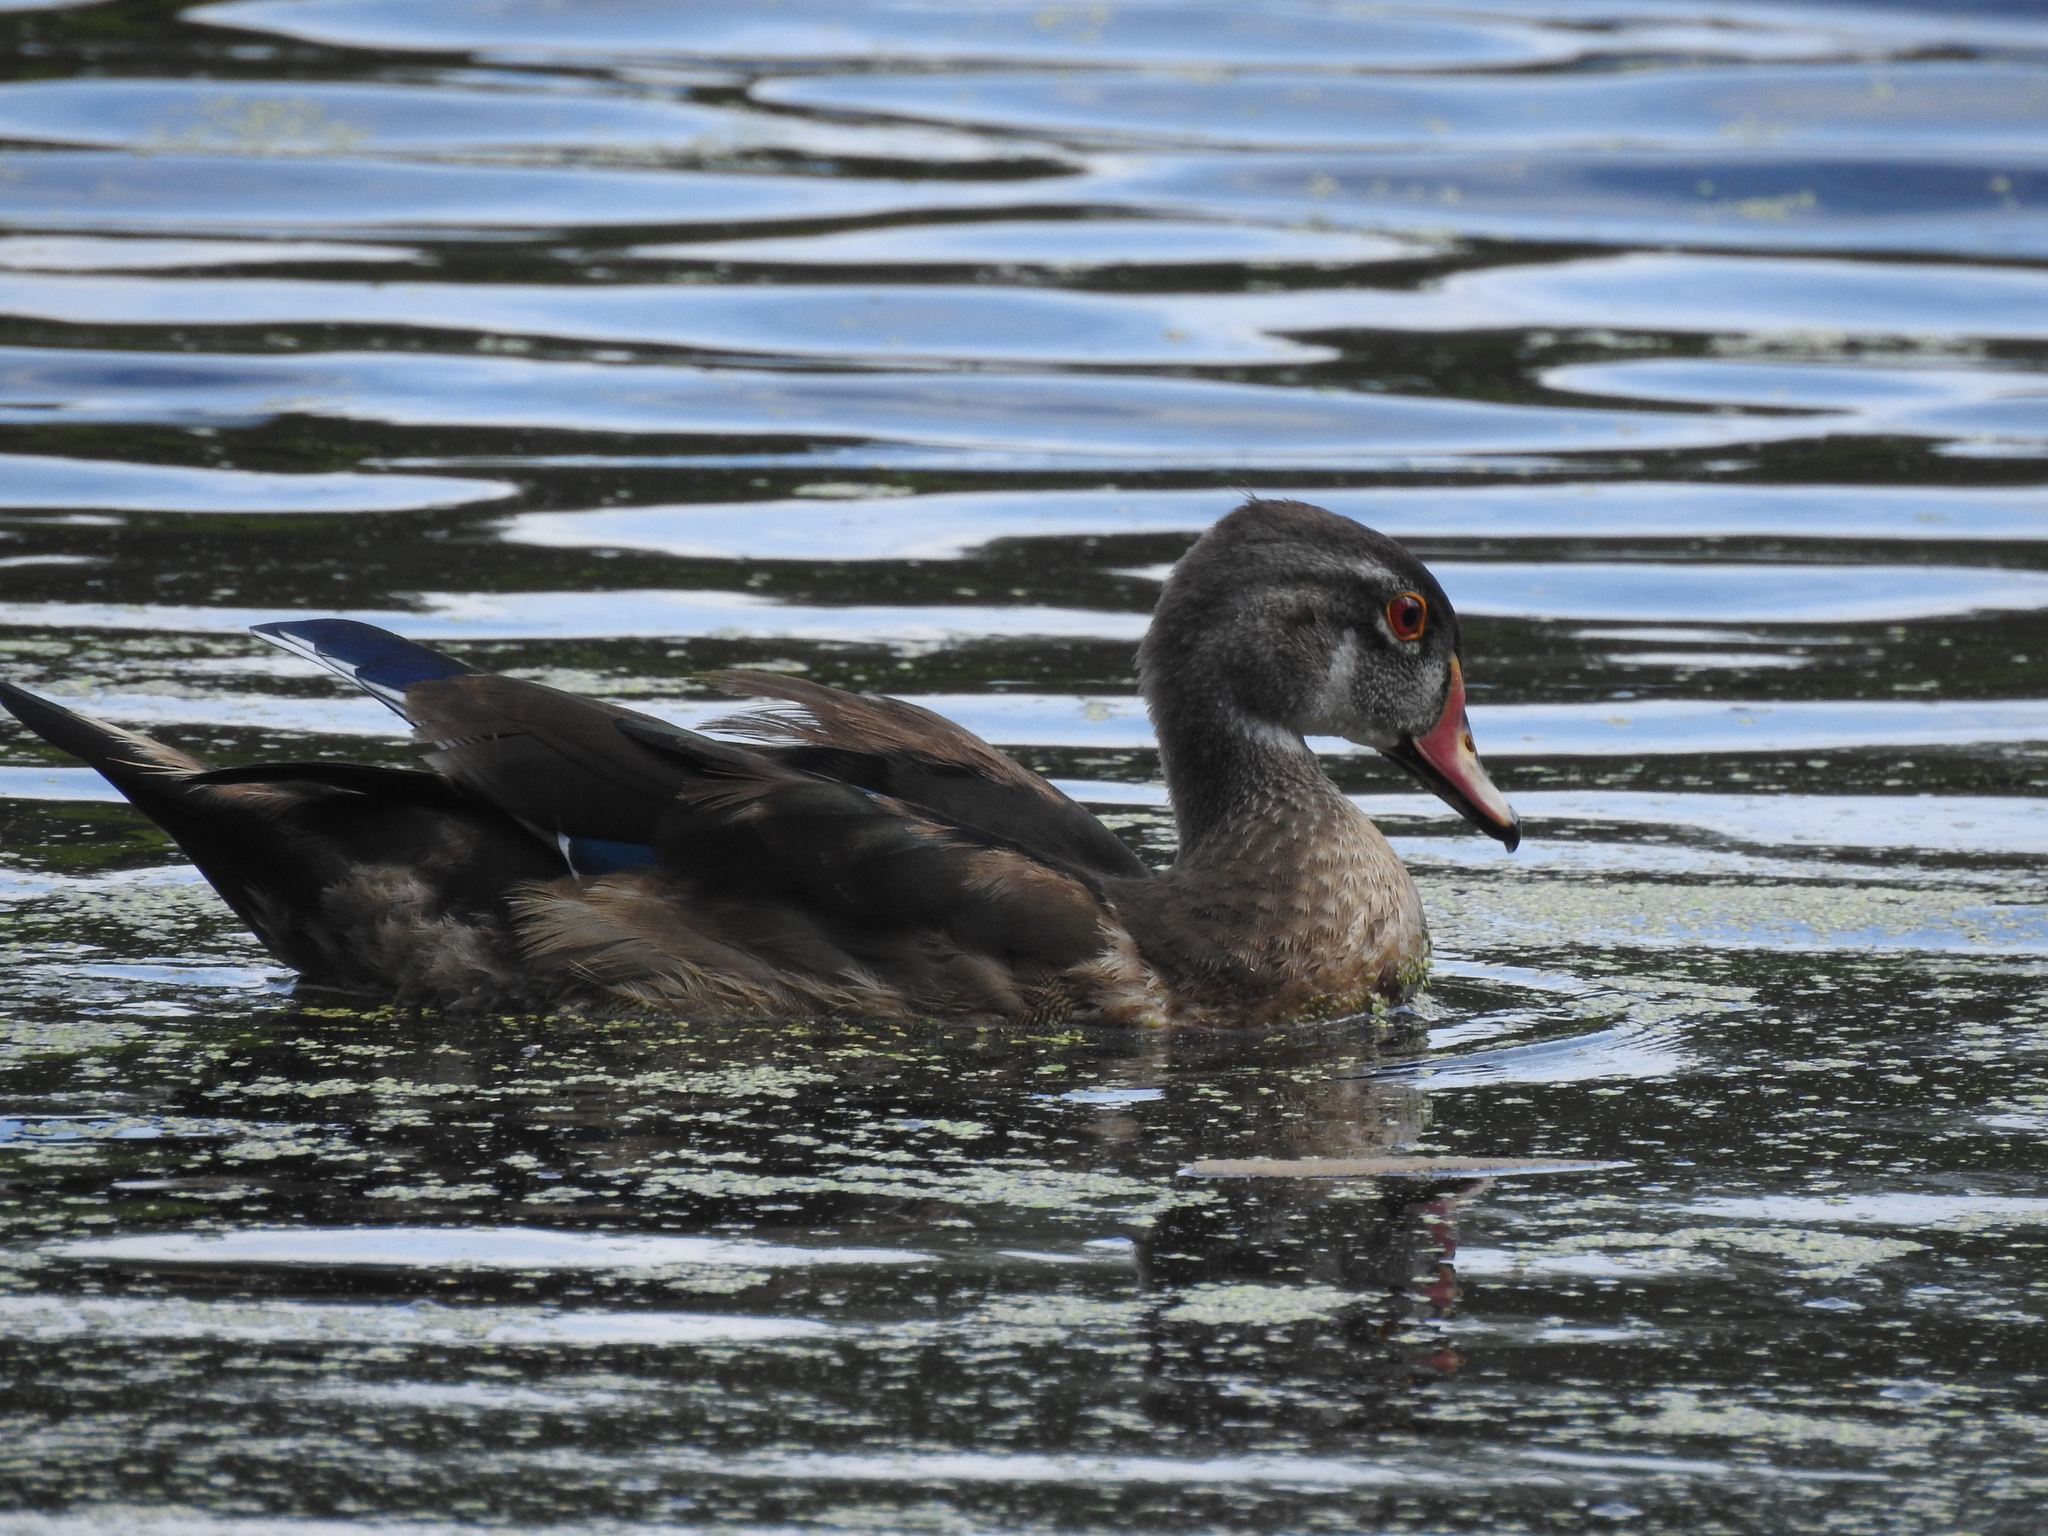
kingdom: Animalia
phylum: Chordata
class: Aves
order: Anseriformes
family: Anatidae
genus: Aix
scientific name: Aix sponsa
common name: Wood duck
